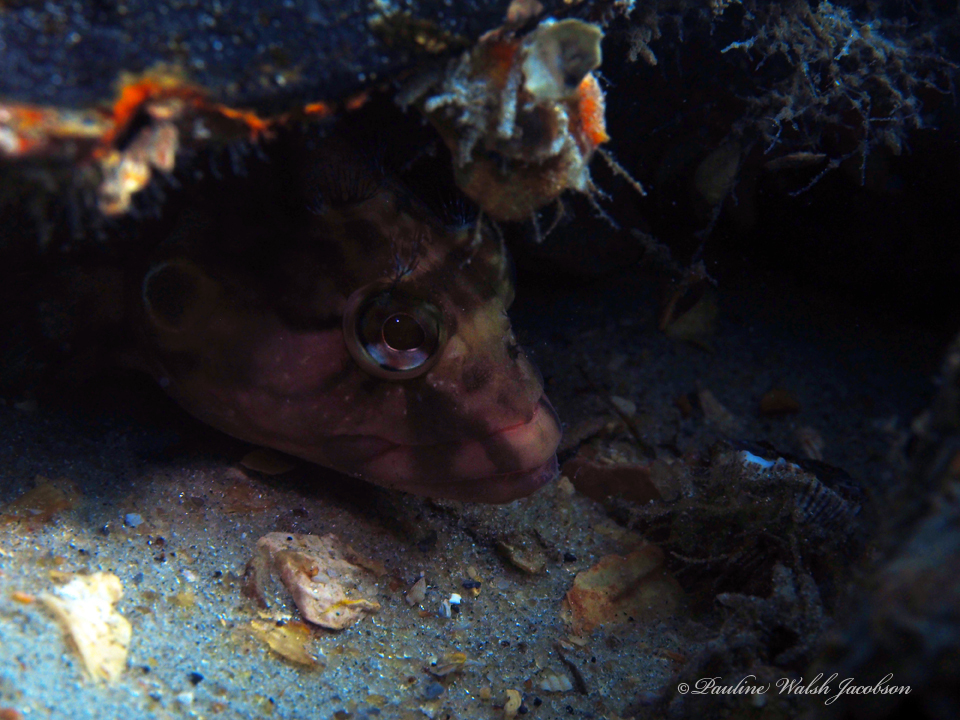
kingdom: Animalia
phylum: Chordata
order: Perciformes
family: Labrisomidae
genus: Labrisomus
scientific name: Labrisomus conditus
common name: Masquerader hairy blenny
